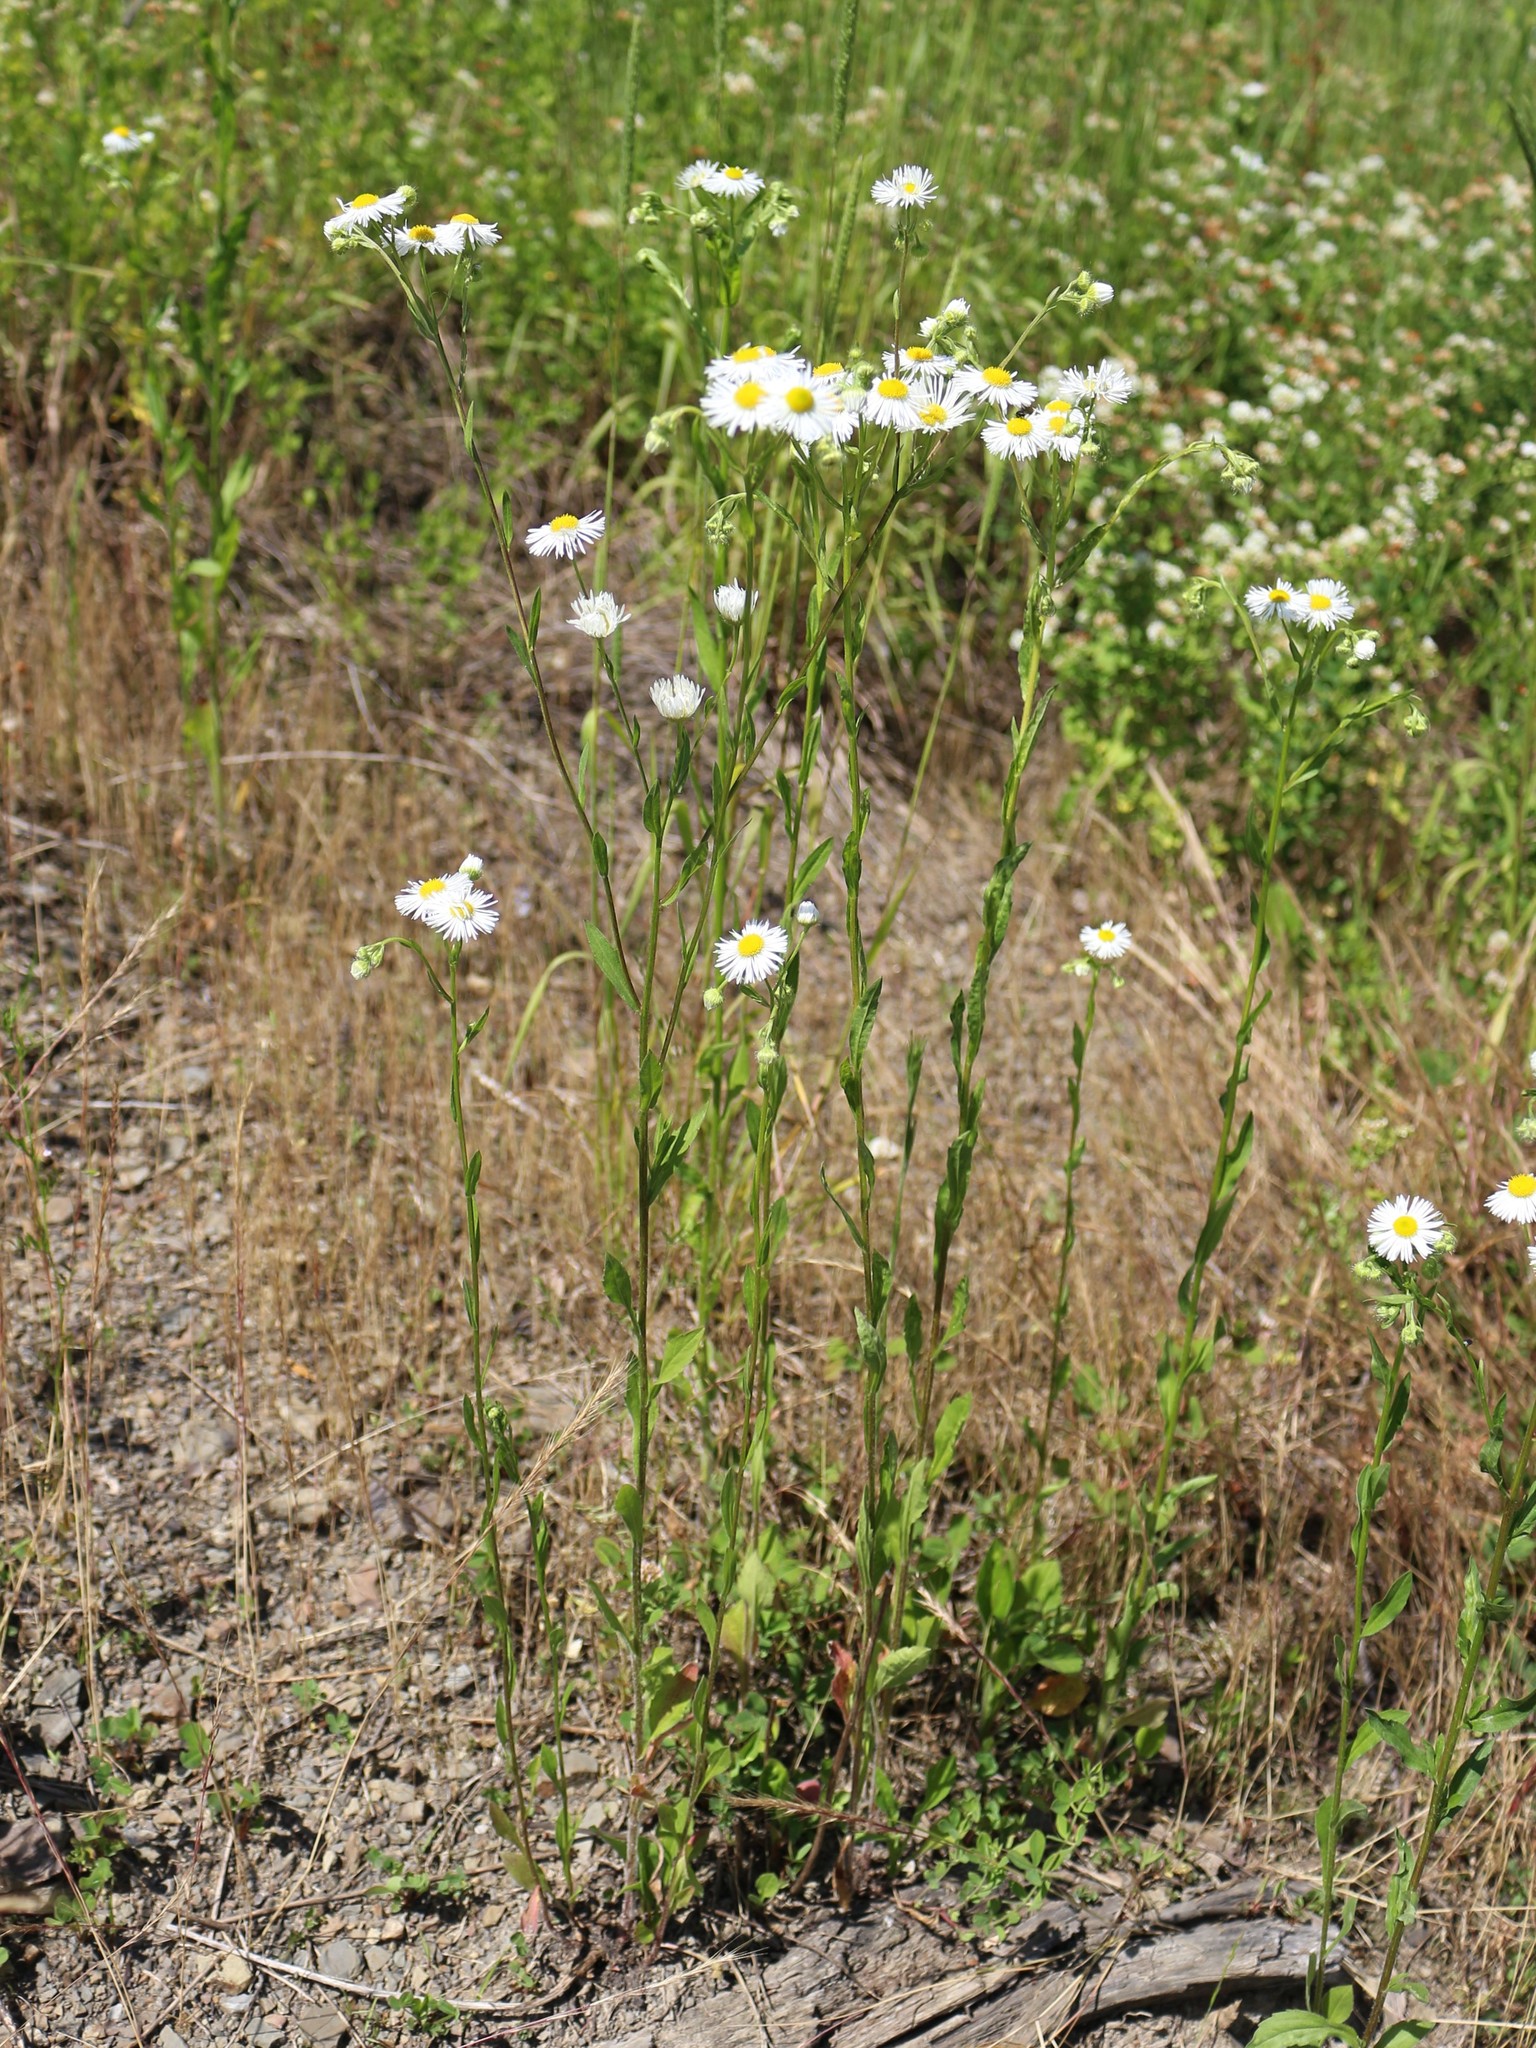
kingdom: Plantae
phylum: Tracheophyta
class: Magnoliopsida
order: Asterales
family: Asteraceae
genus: Erigeron
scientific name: Erigeron annuus
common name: Tall fleabane
